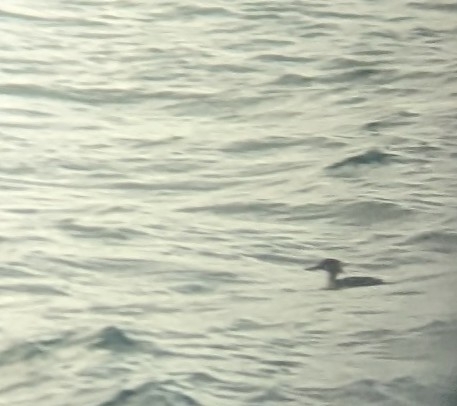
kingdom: Animalia
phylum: Chordata
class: Aves
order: Anseriformes
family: Anatidae
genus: Mergus
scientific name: Mergus serrator
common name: Red-breasted merganser
